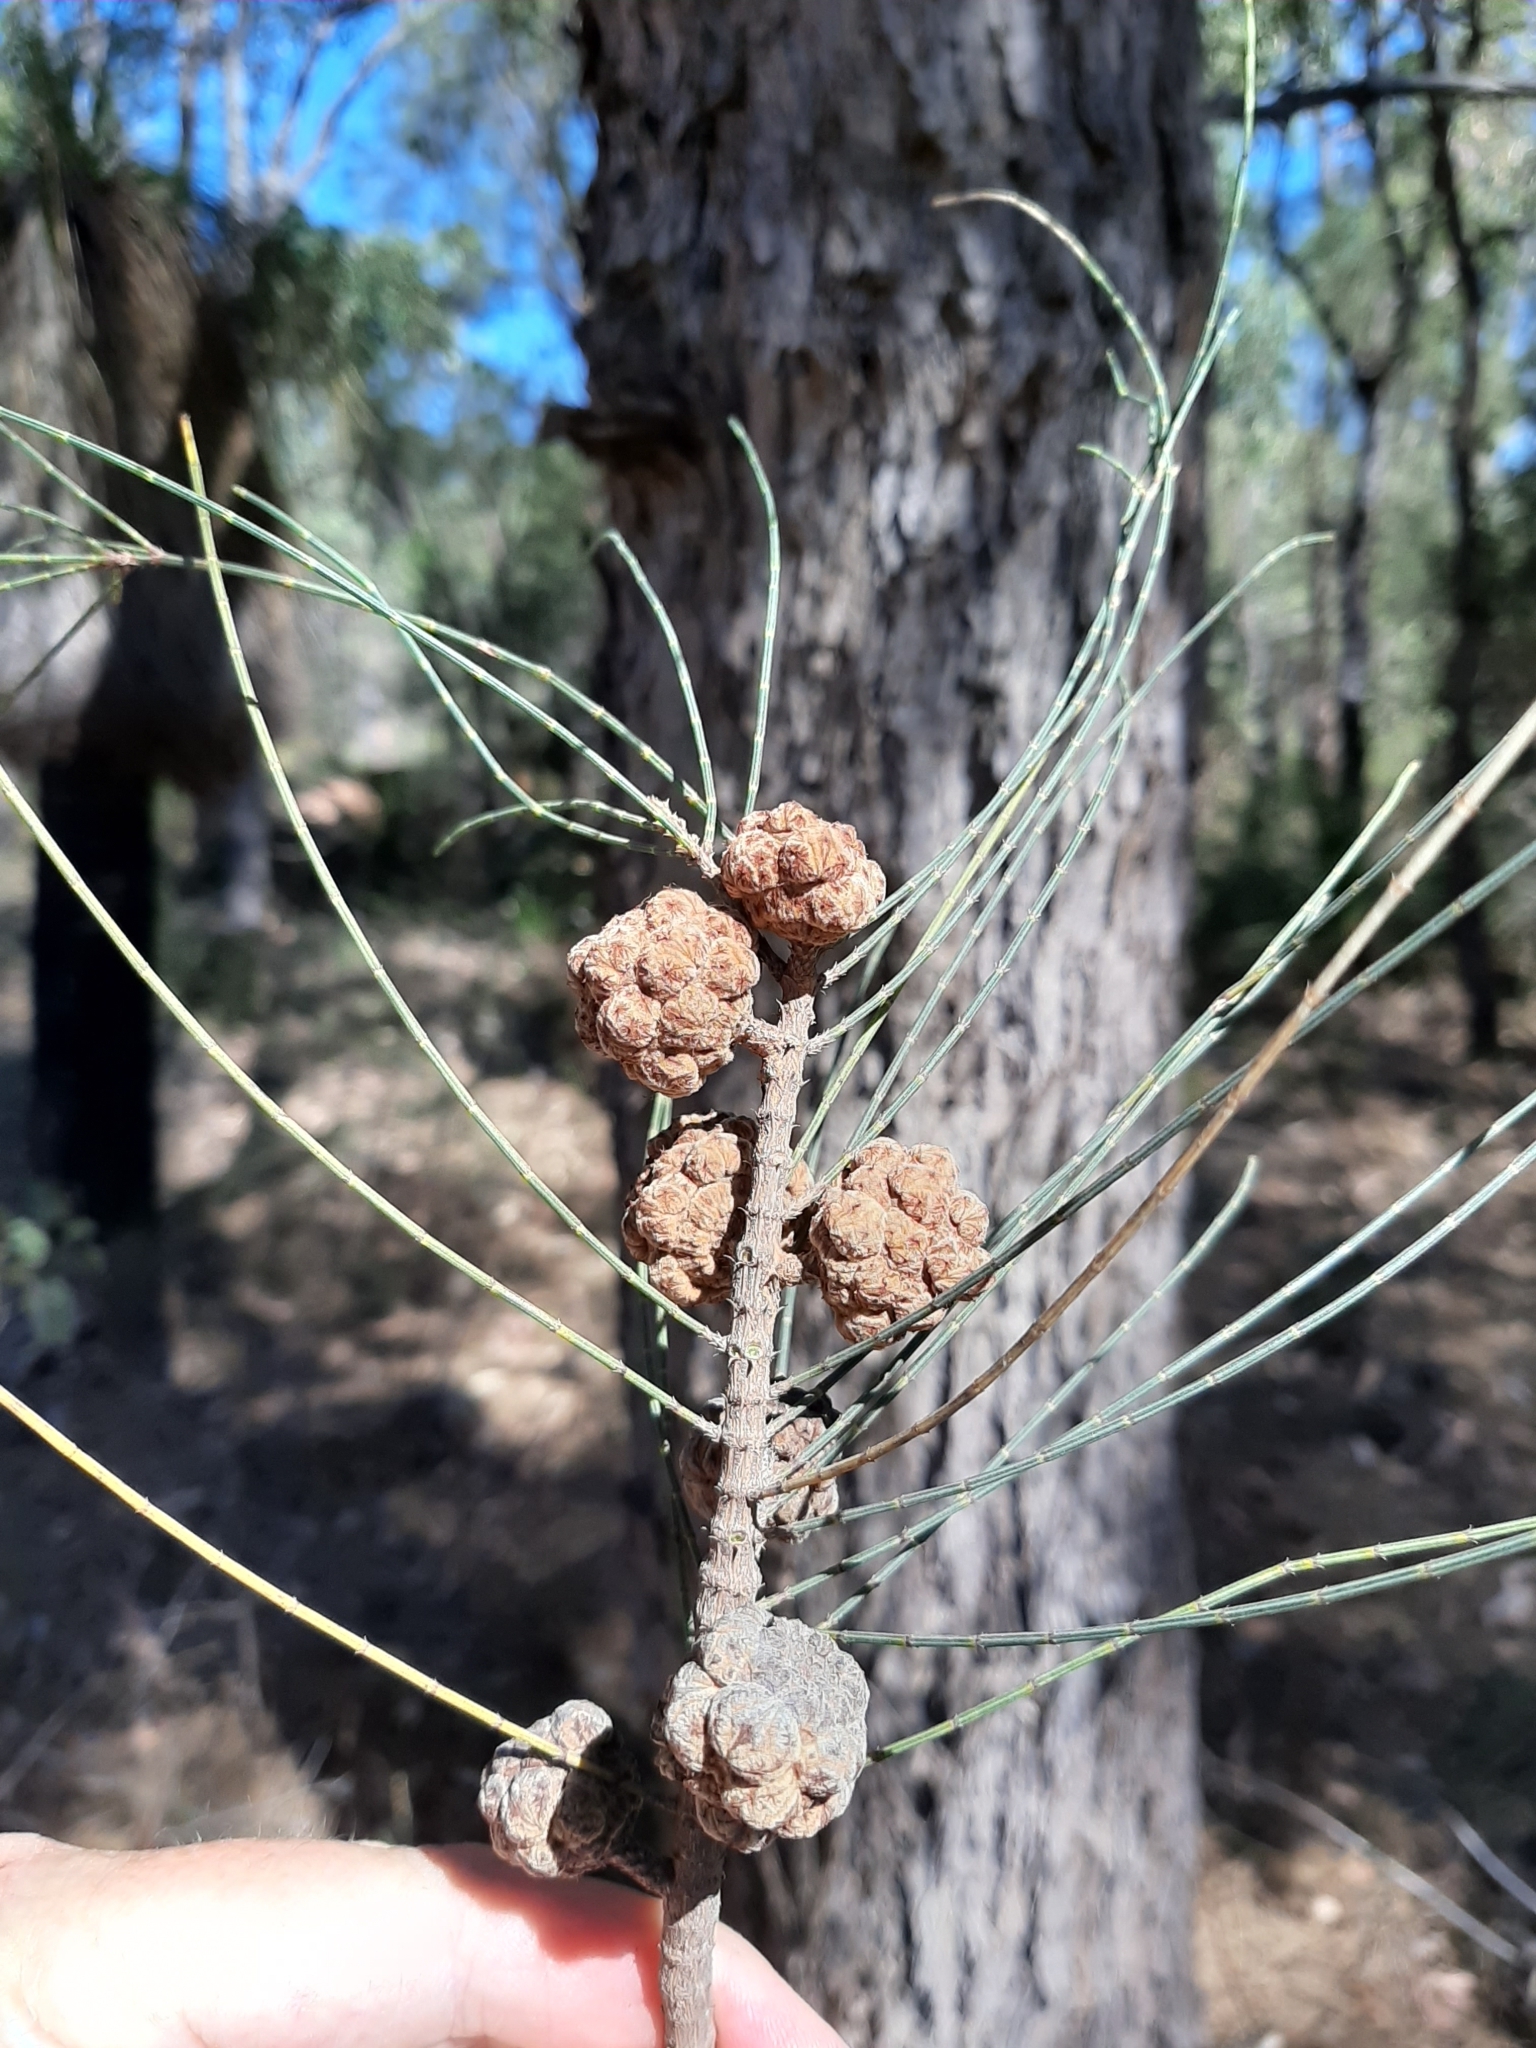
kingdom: Plantae
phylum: Tracheophyta
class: Magnoliopsida
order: Fagales
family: Casuarinaceae
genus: Allocasuarina
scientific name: Allocasuarina fraseriana
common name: Bull-oak
